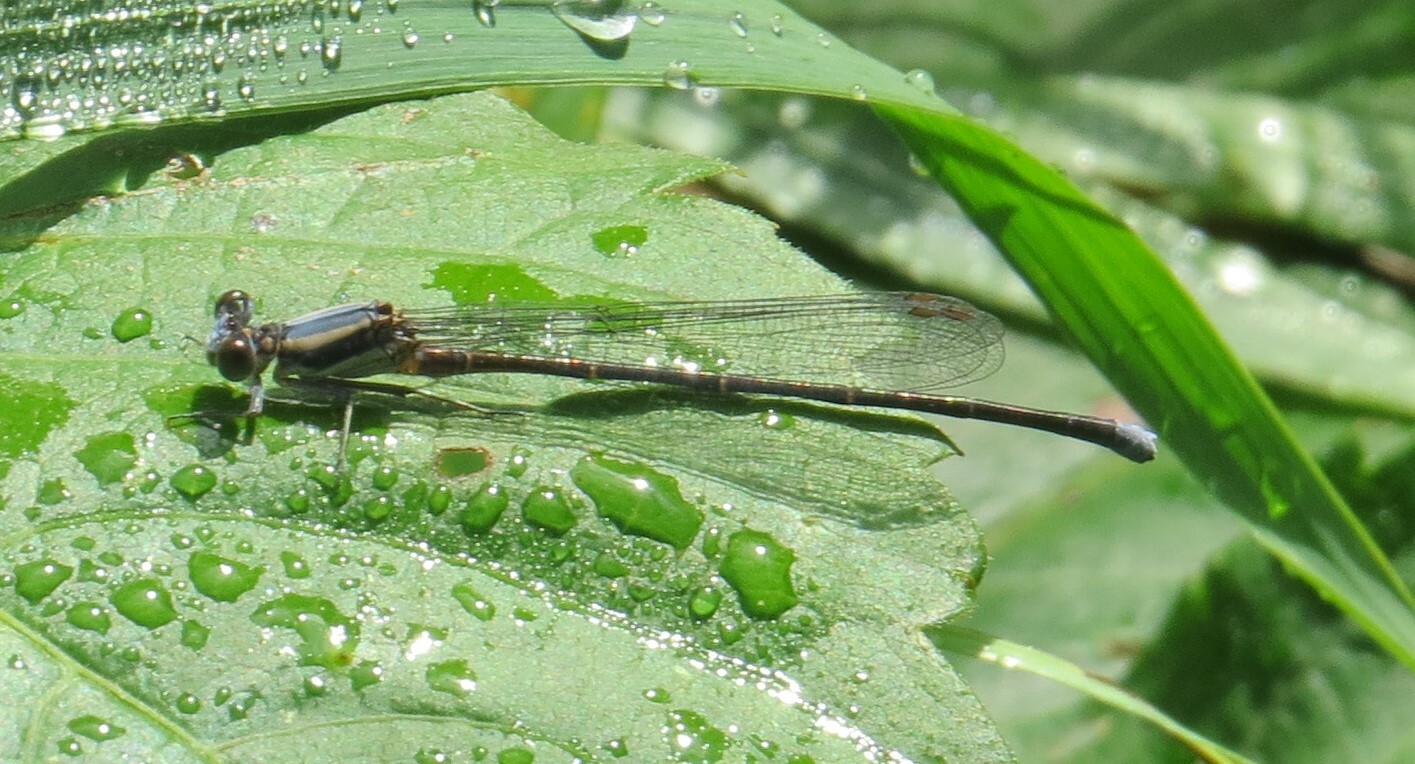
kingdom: Animalia
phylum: Arthropoda
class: Insecta
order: Odonata
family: Coenagrionidae
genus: Argia
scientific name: Argia moesta
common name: Powdered dancer
